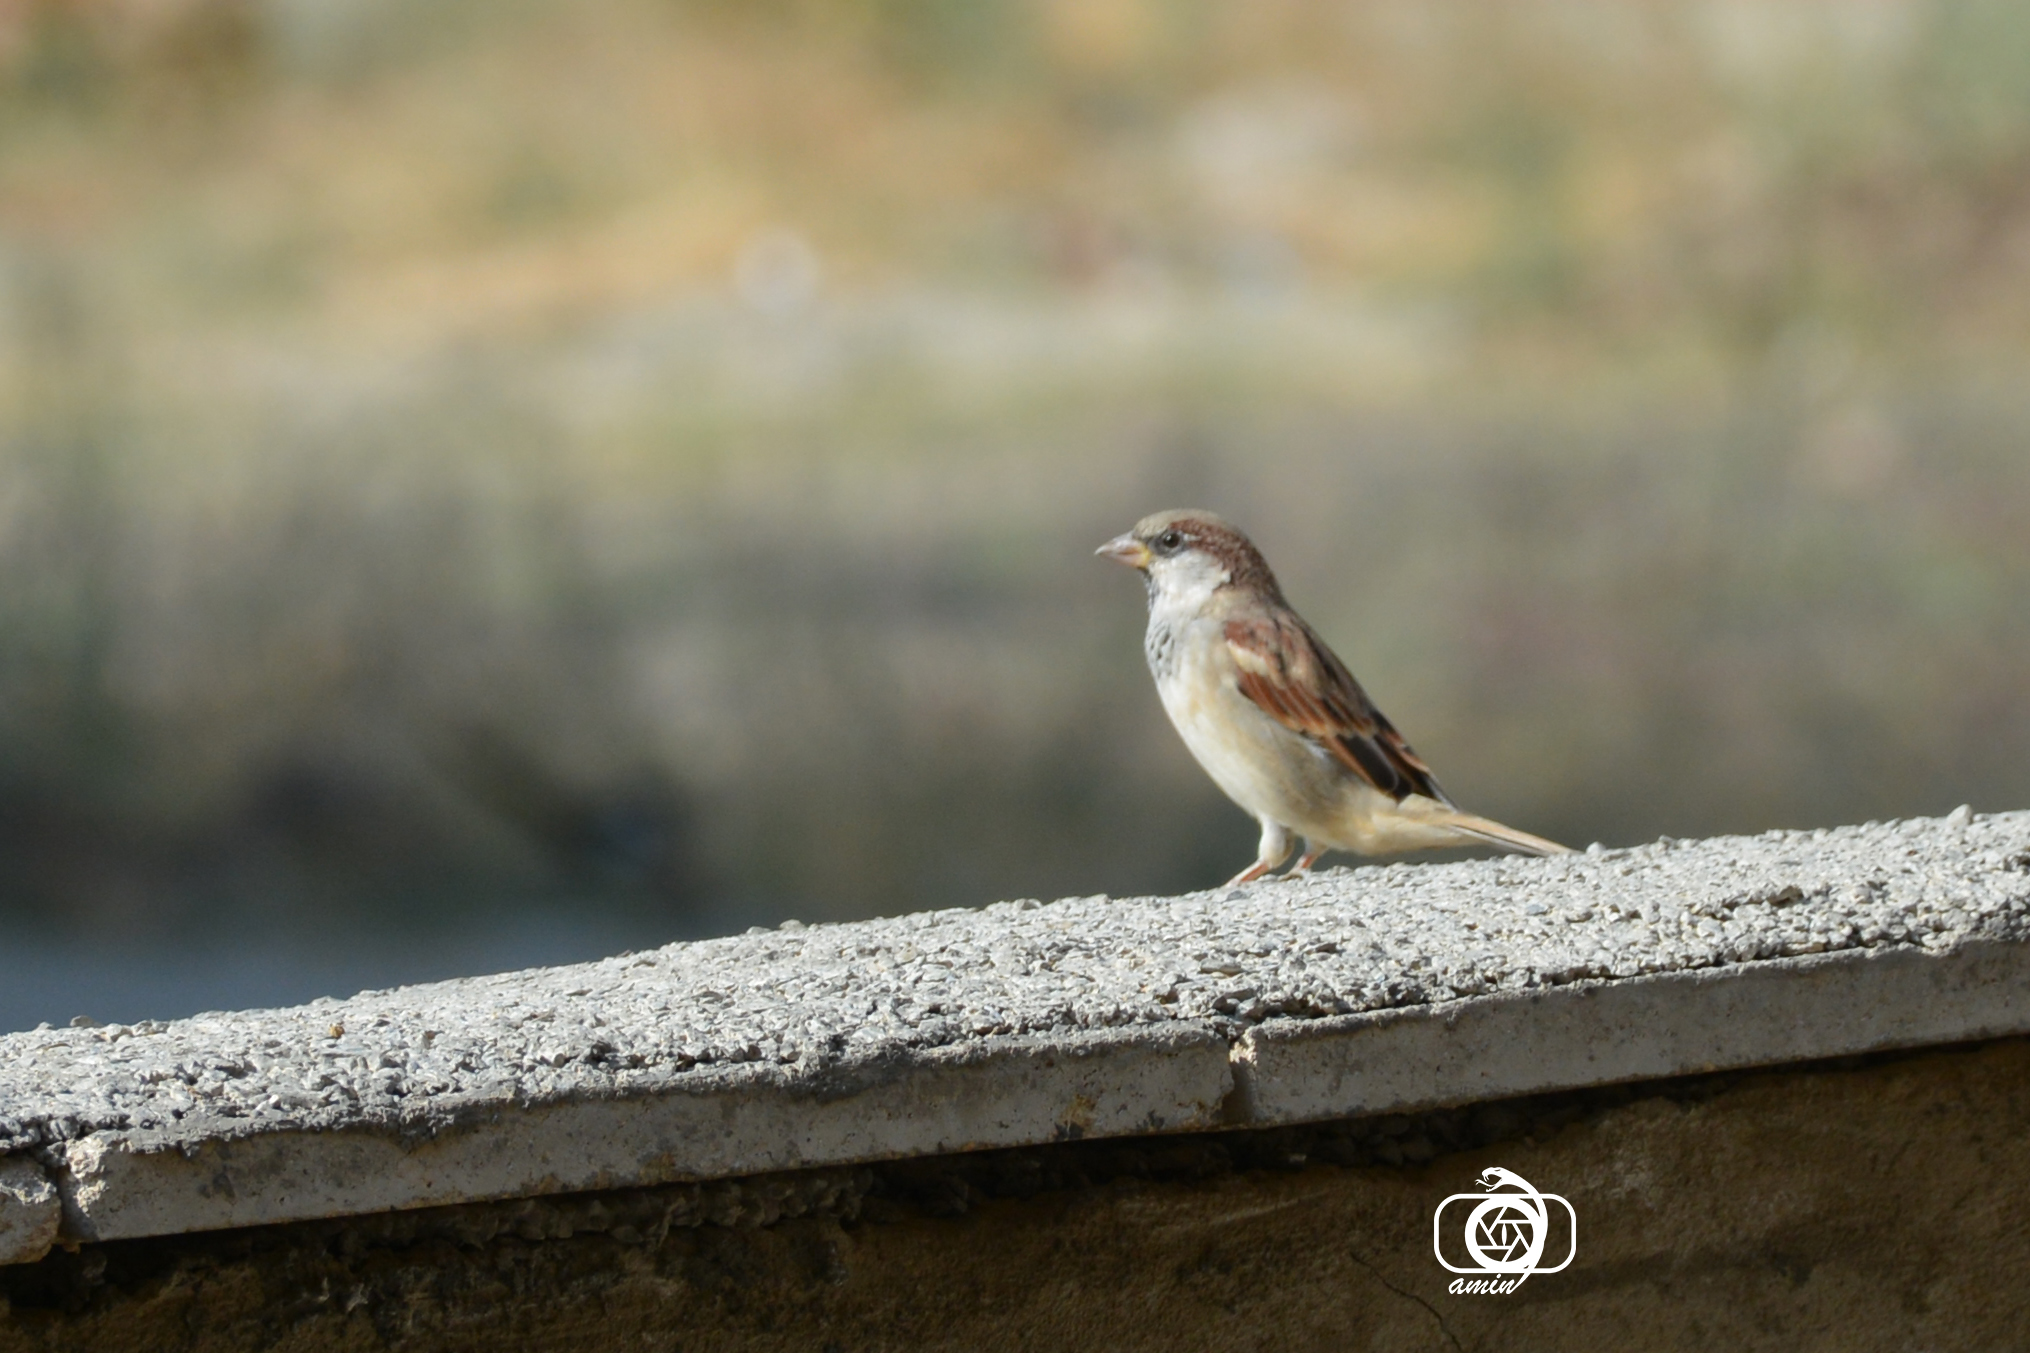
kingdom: Animalia
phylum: Chordata
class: Aves
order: Passeriformes
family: Passeridae
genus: Passer
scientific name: Passer domesticus
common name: House sparrow
